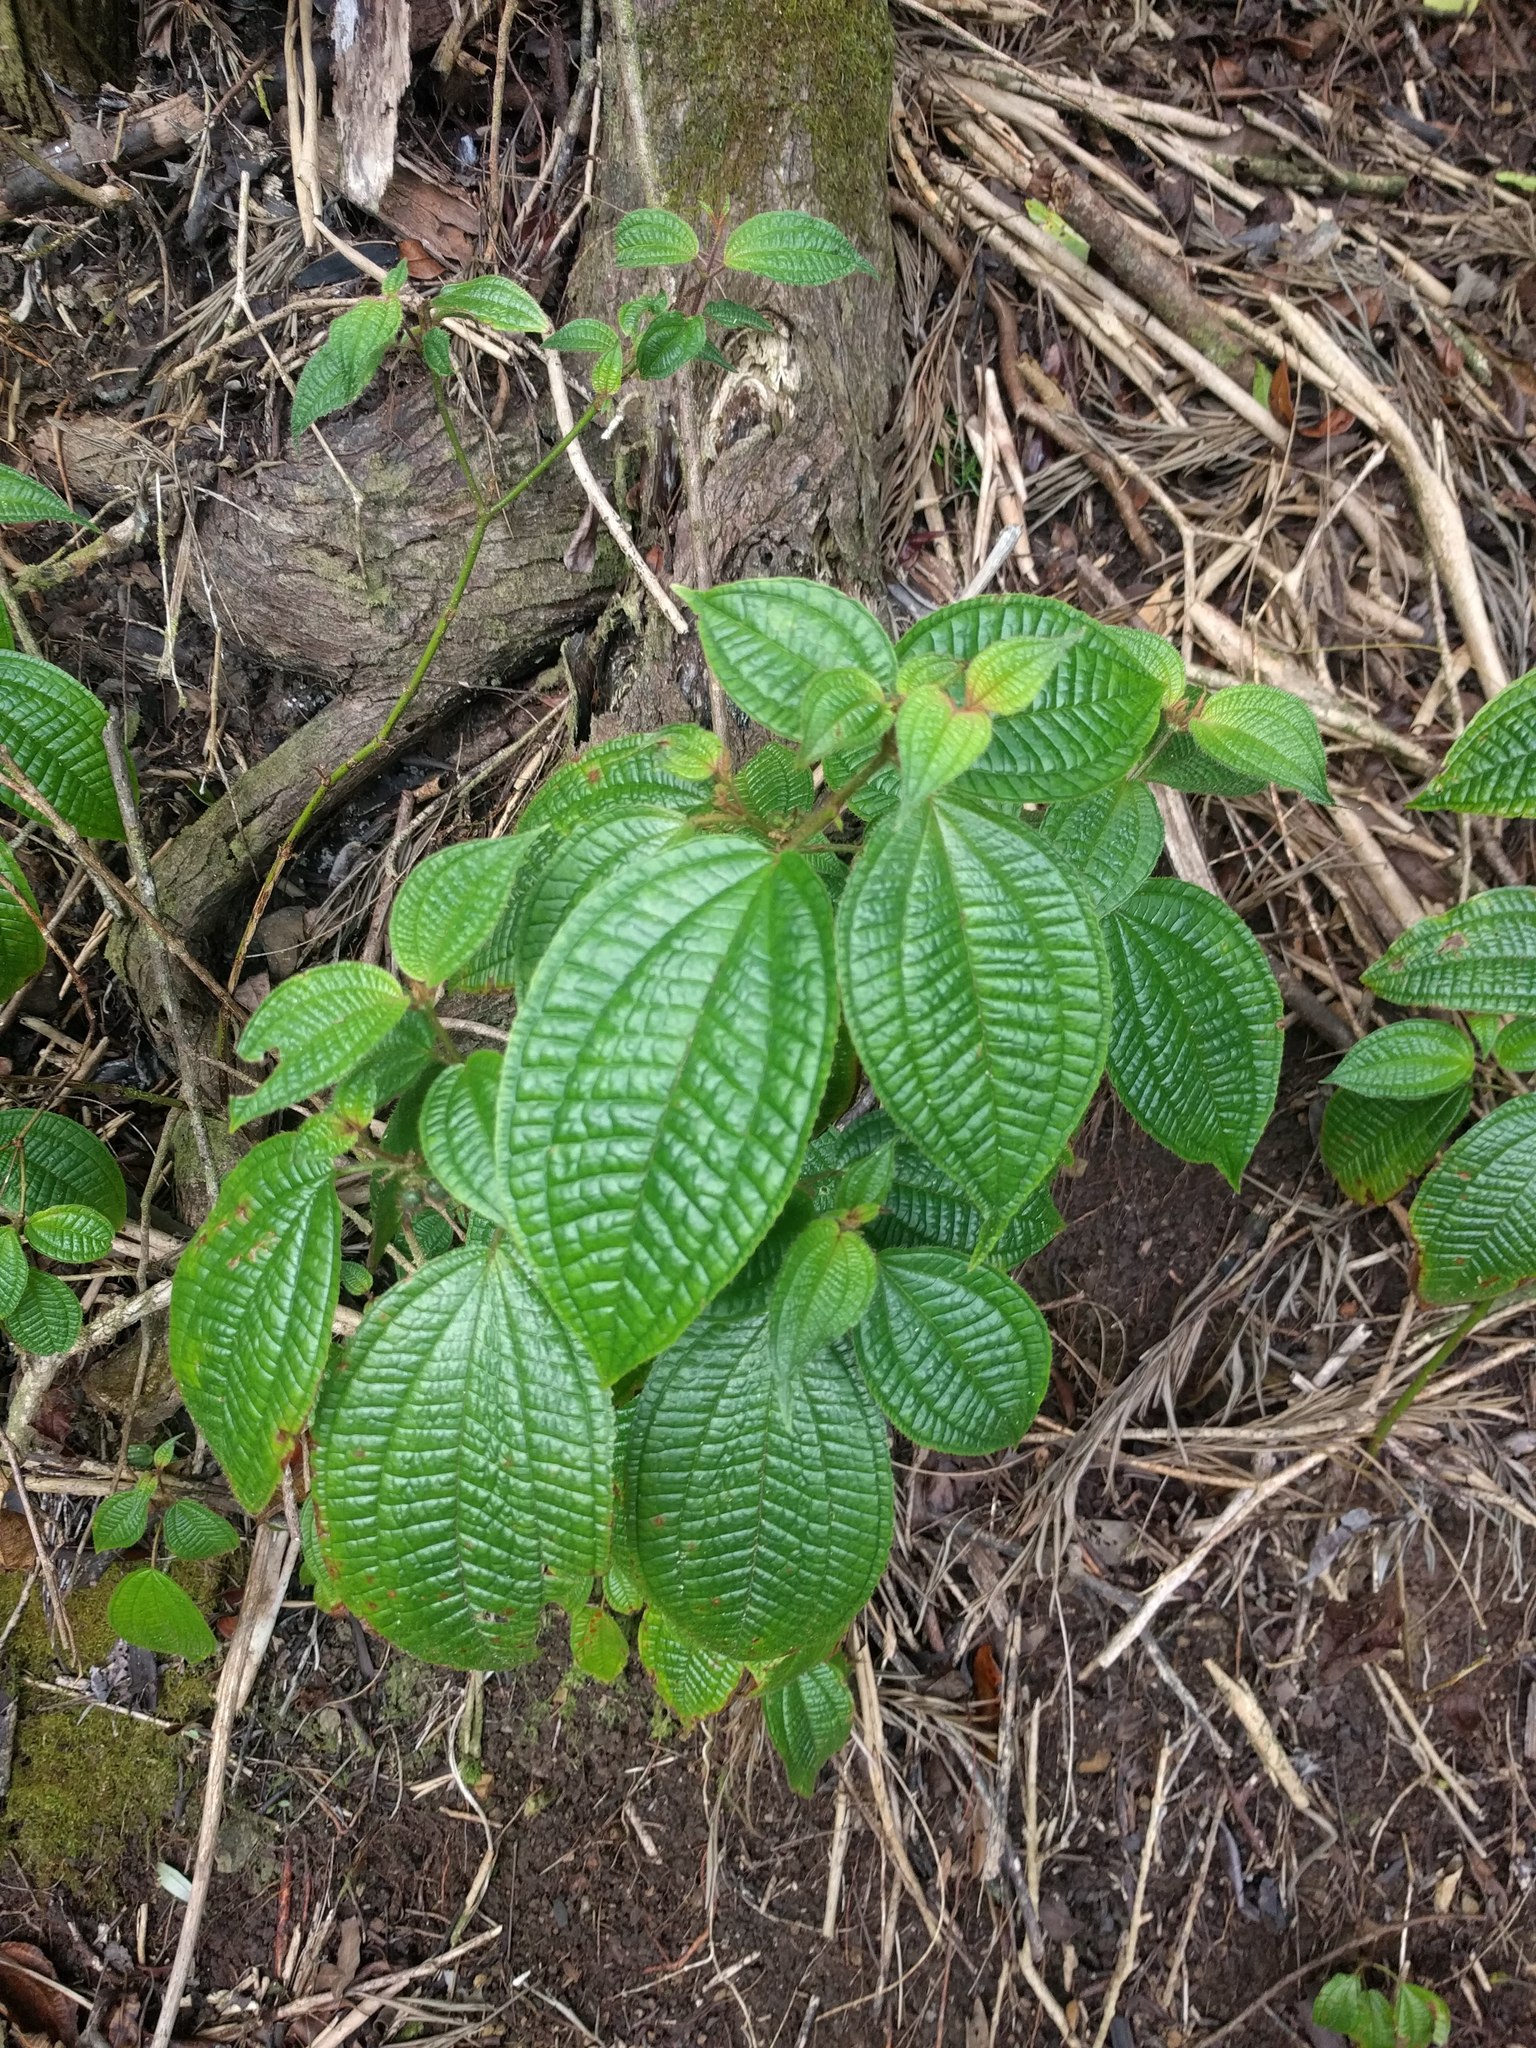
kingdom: Plantae
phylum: Tracheophyta
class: Magnoliopsida
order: Myrtales
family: Melastomataceae
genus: Miconia
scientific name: Miconia crenata
